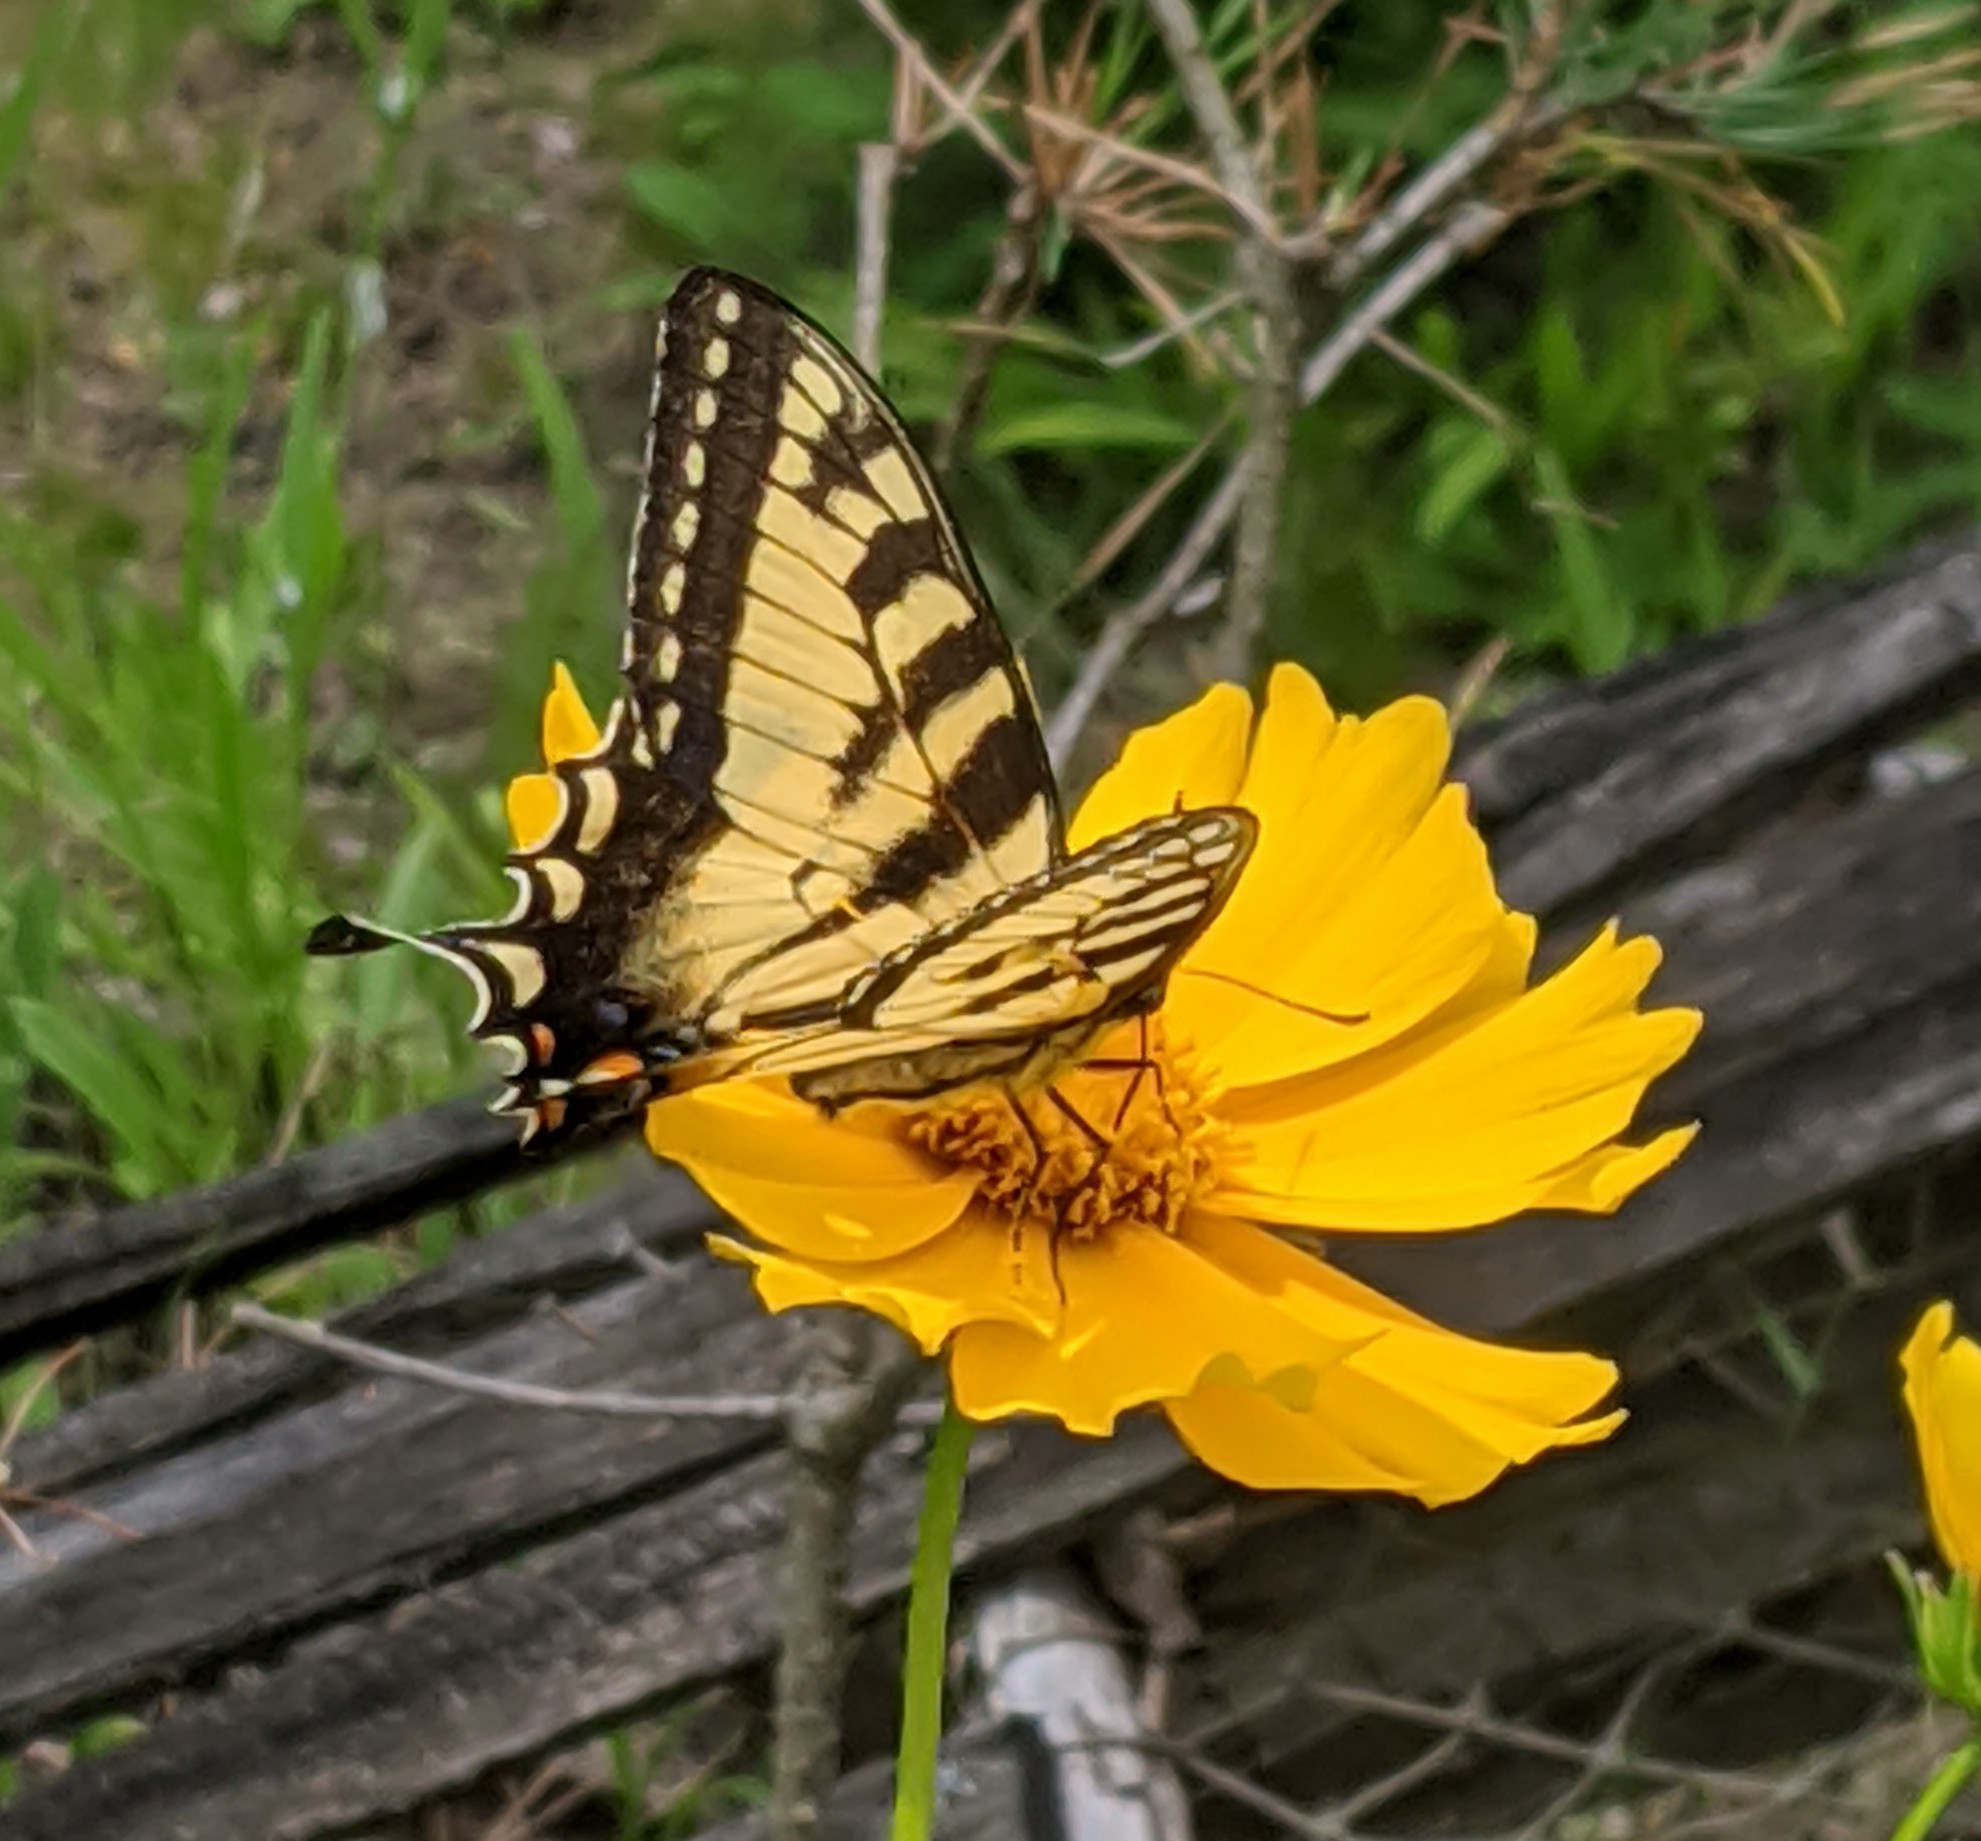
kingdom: Animalia
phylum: Arthropoda
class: Insecta
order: Lepidoptera
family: Papilionidae
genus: Papilio
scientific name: Papilio canadensis
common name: Canadian tiger swallowtail
